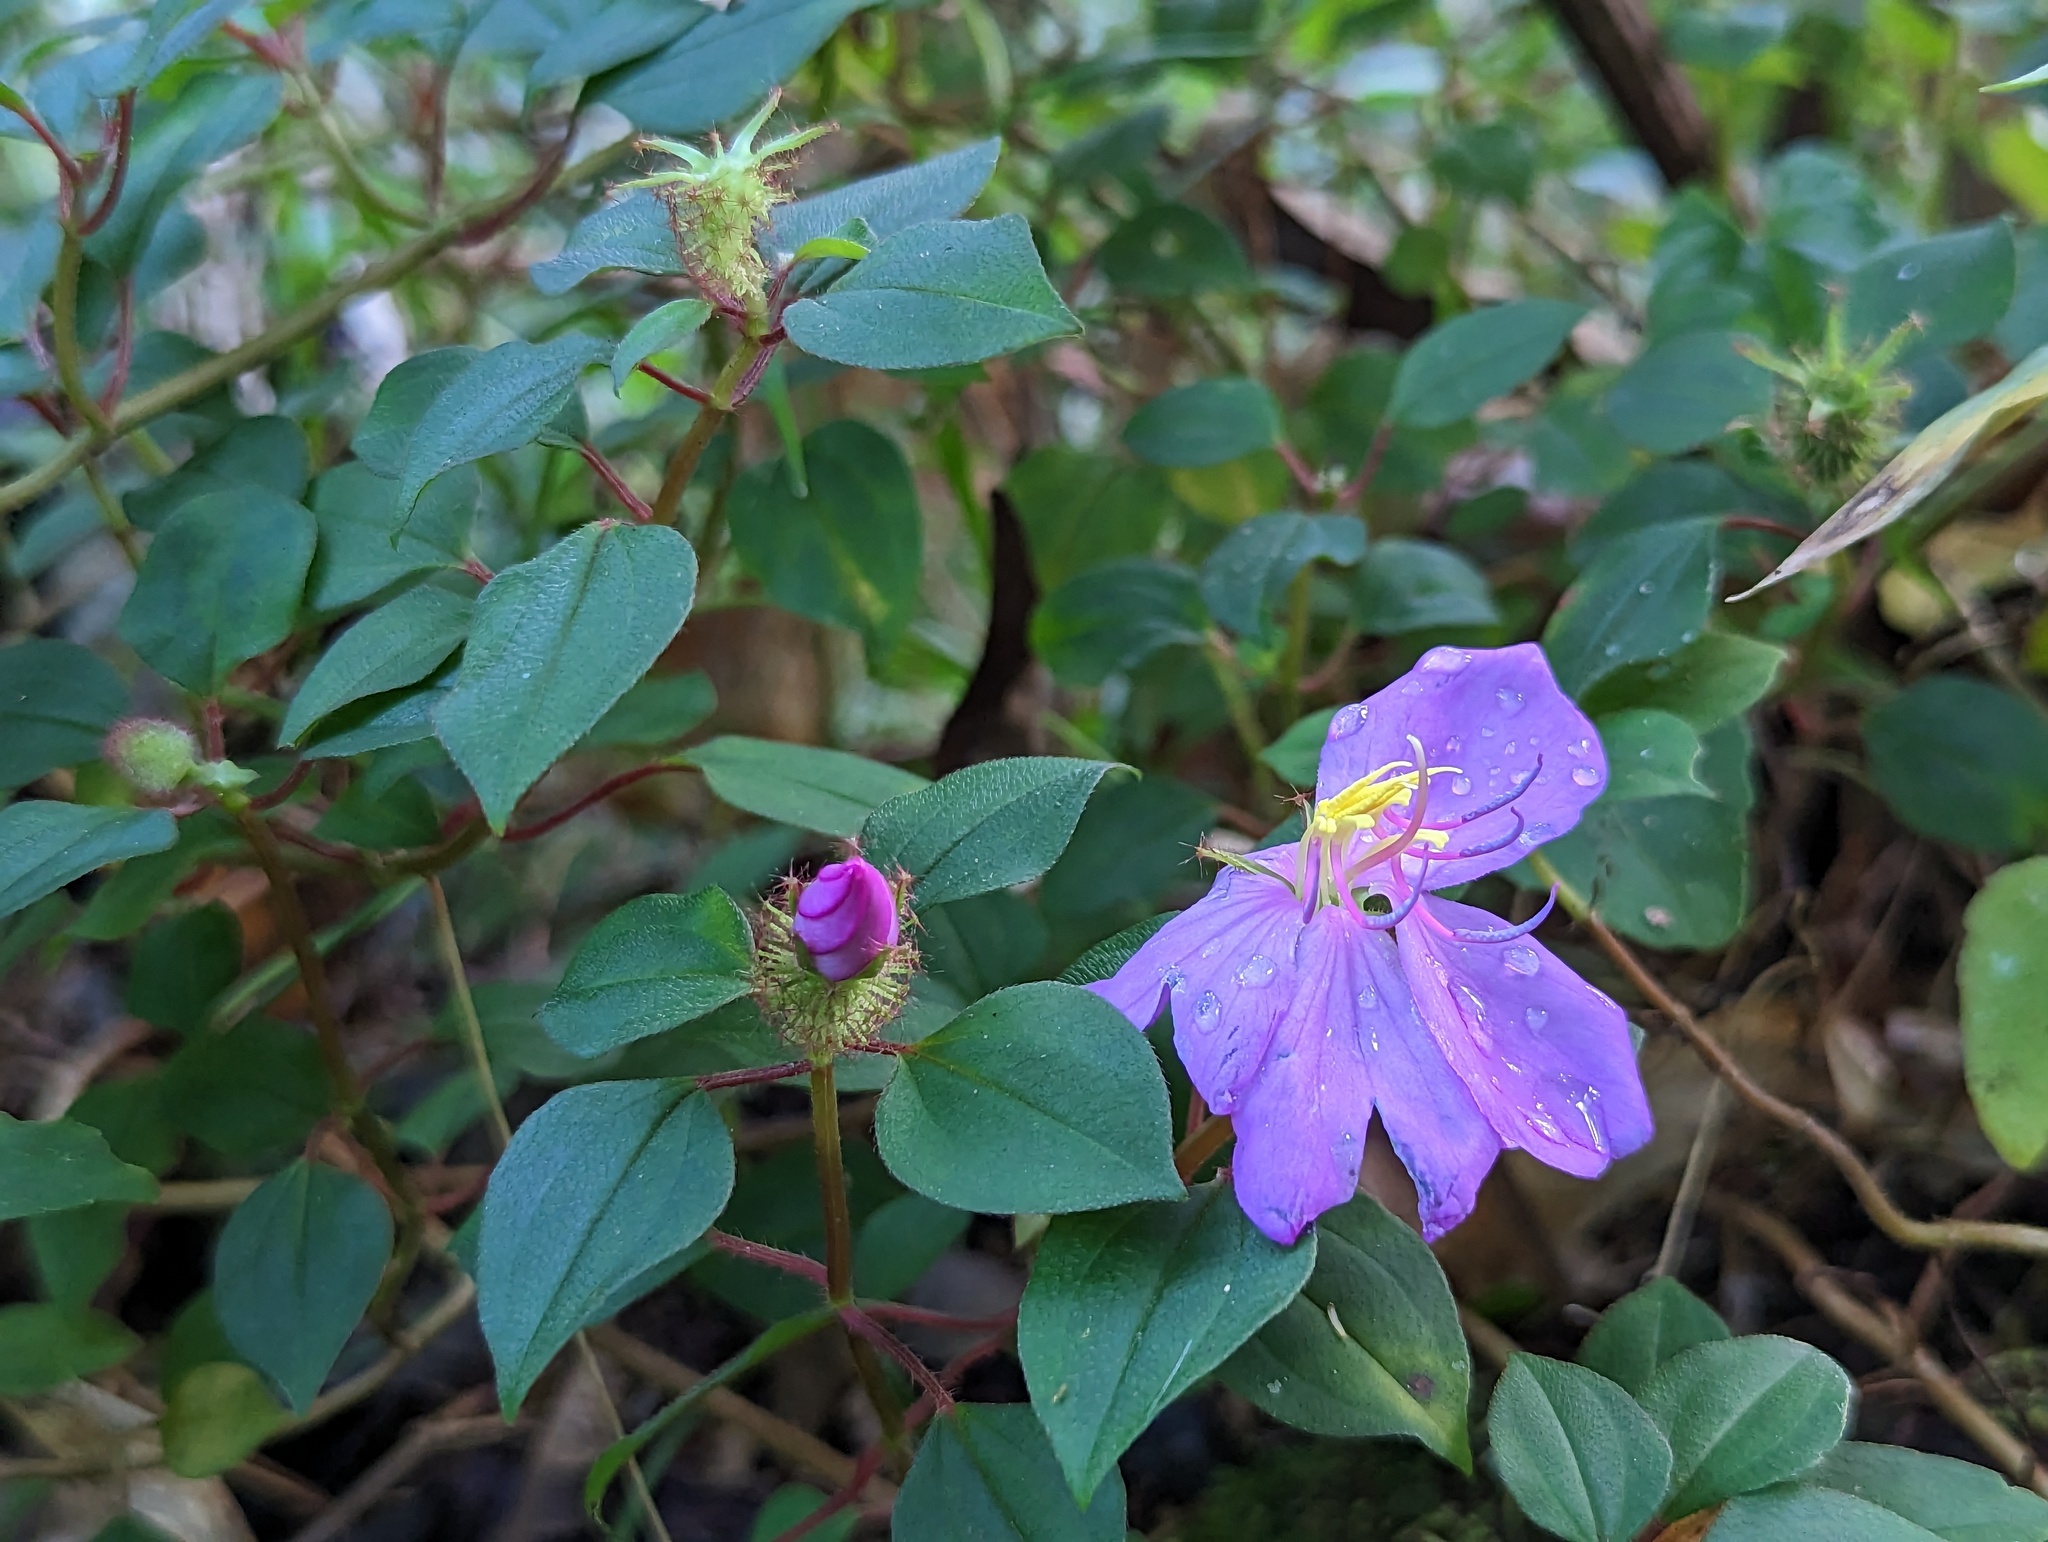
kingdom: Plantae
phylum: Tracheophyta
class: Magnoliopsida
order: Myrtales
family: Melastomataceae
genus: Heterotis
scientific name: Heterotis rotundifolia
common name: Pinklady
